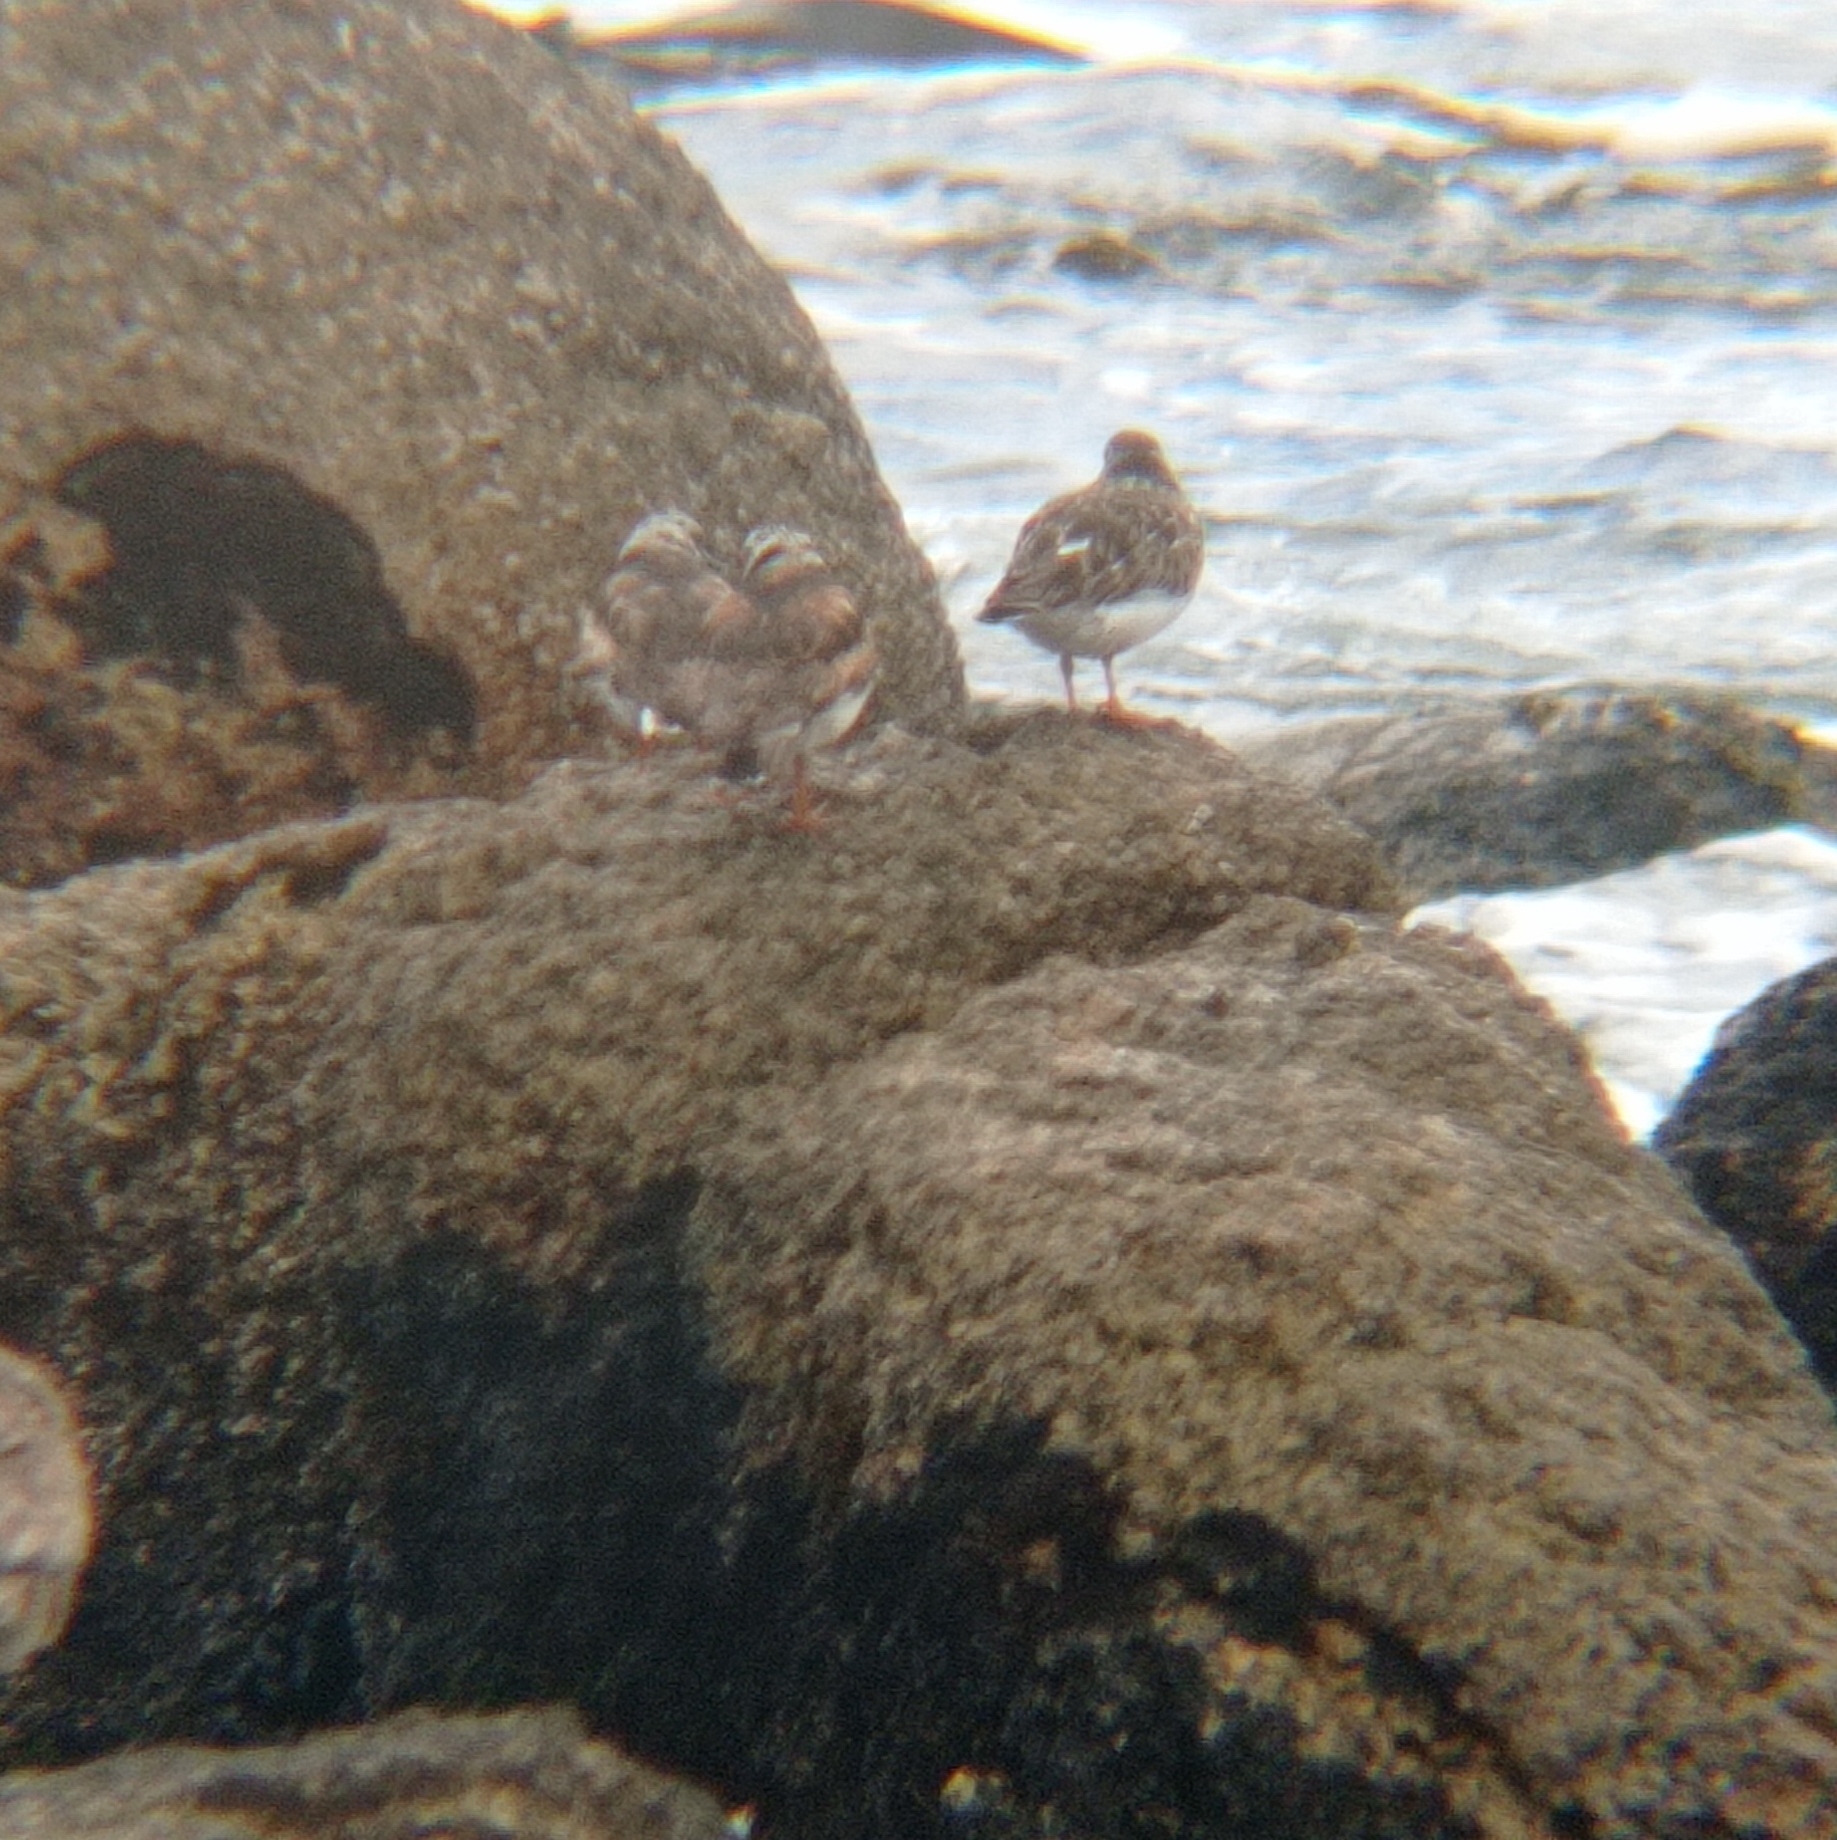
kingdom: Animalia
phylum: Chordata
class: Aves
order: Charadriiformes
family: Scolopacidae
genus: Arenaria
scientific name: Arenaria interpres
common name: Ruddy turnstone
